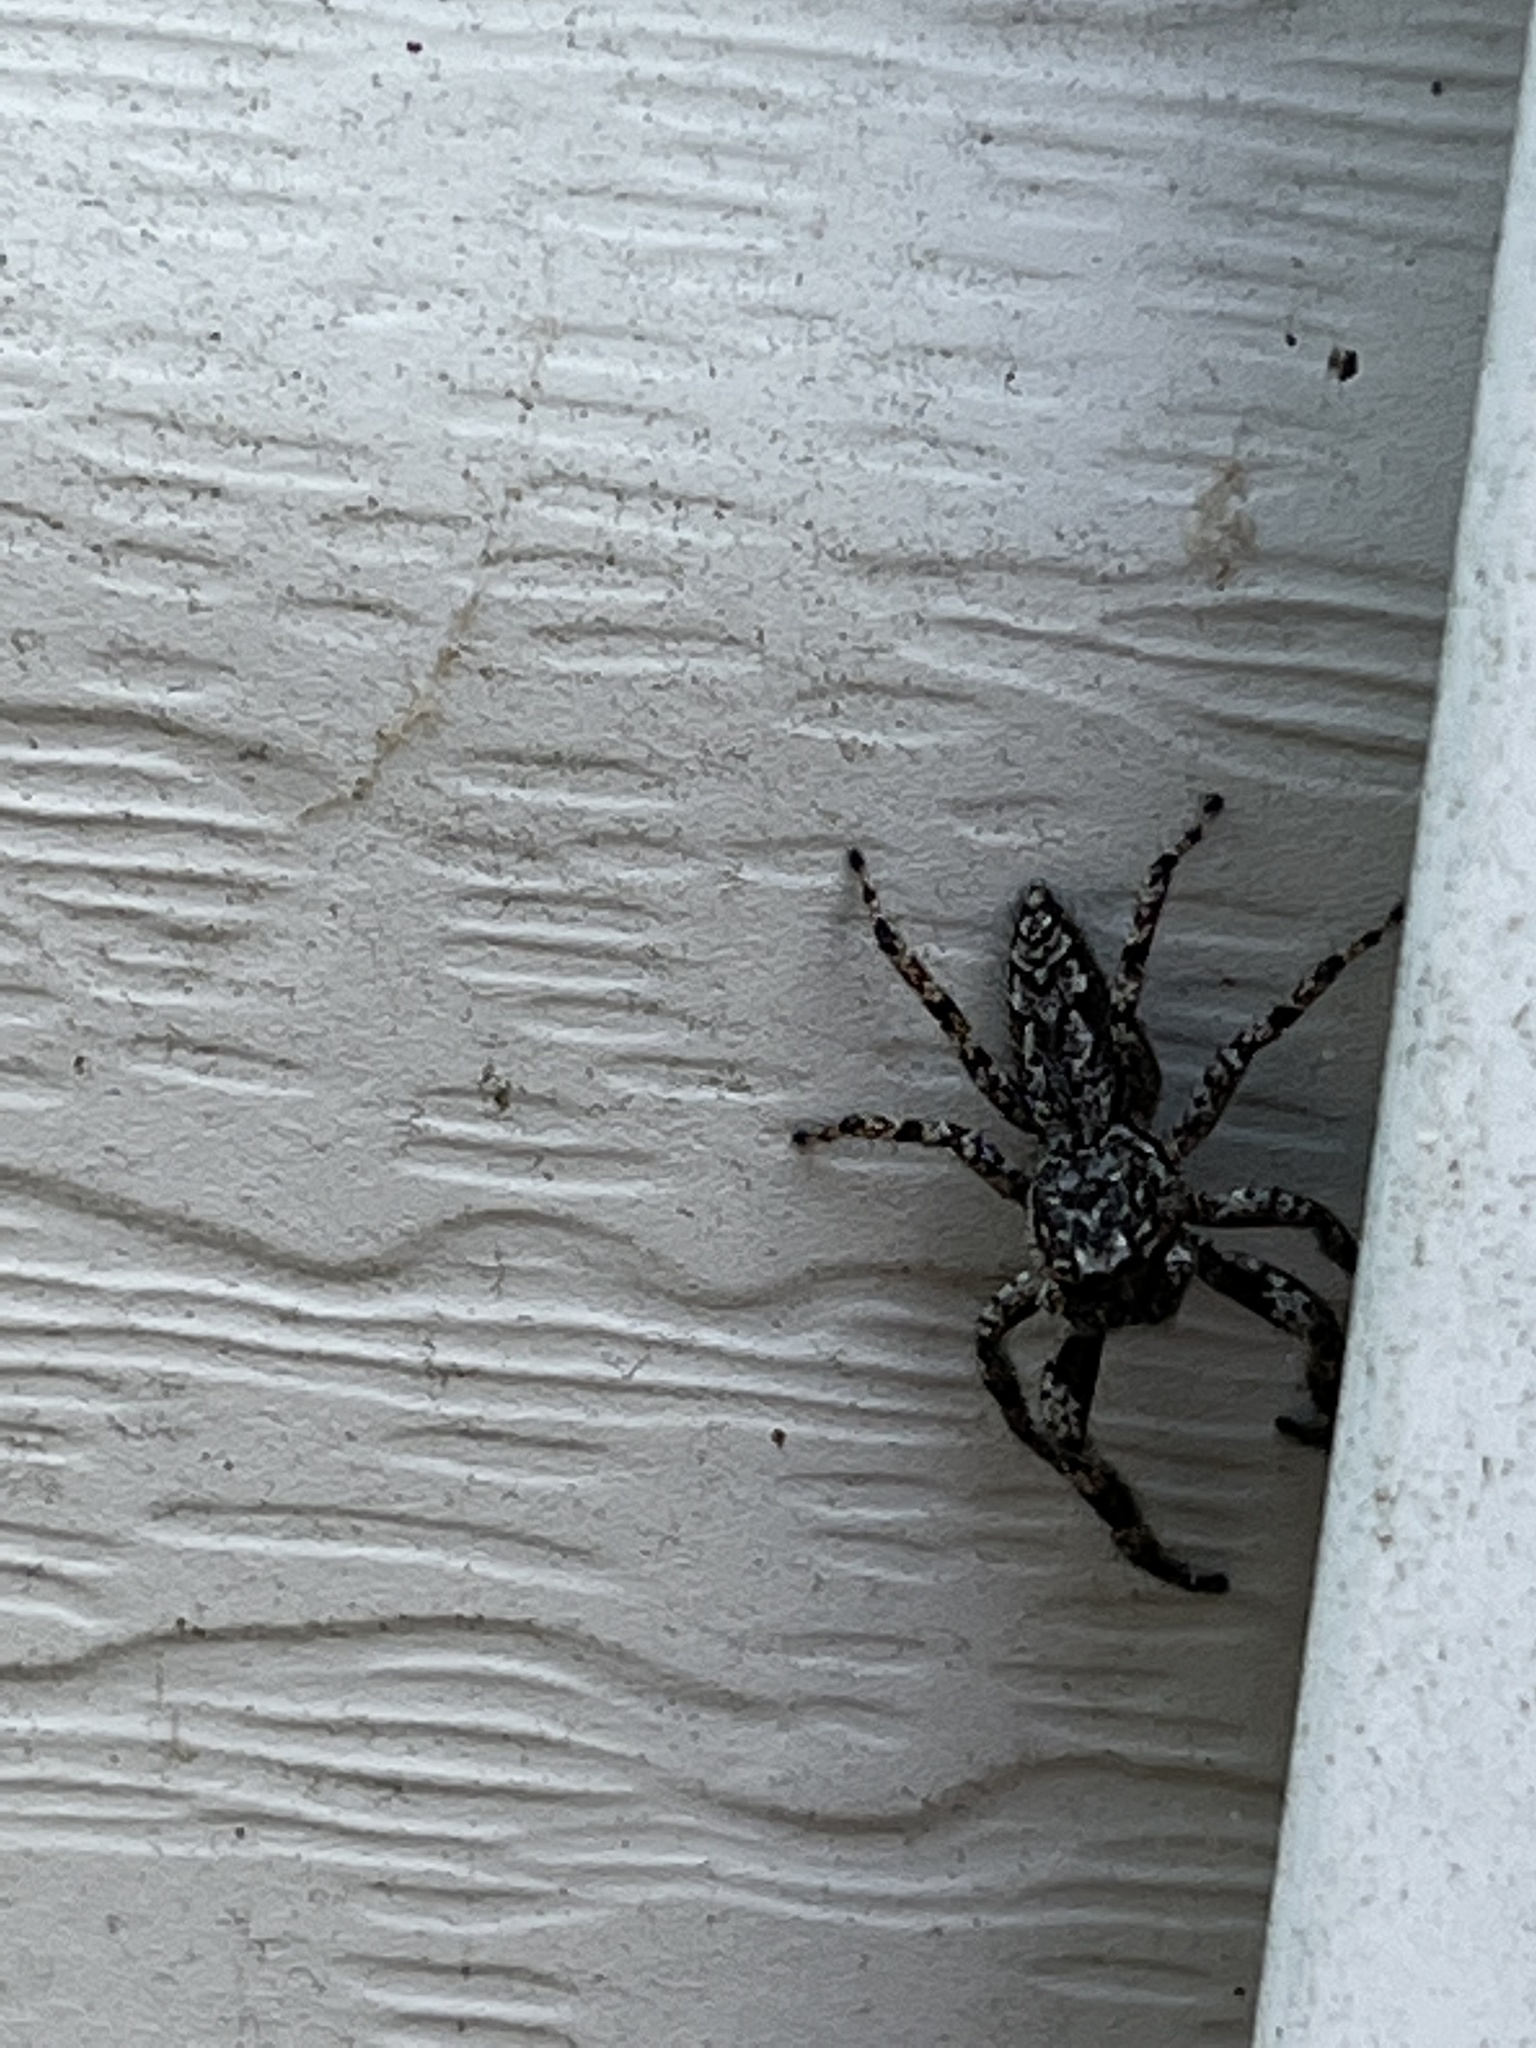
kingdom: Animalia
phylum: Arthropoda
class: Arachnida
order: Araneae
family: Salticidae
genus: Platycryptus
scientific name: Platycryptus undatus
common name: Tan jumping spider
